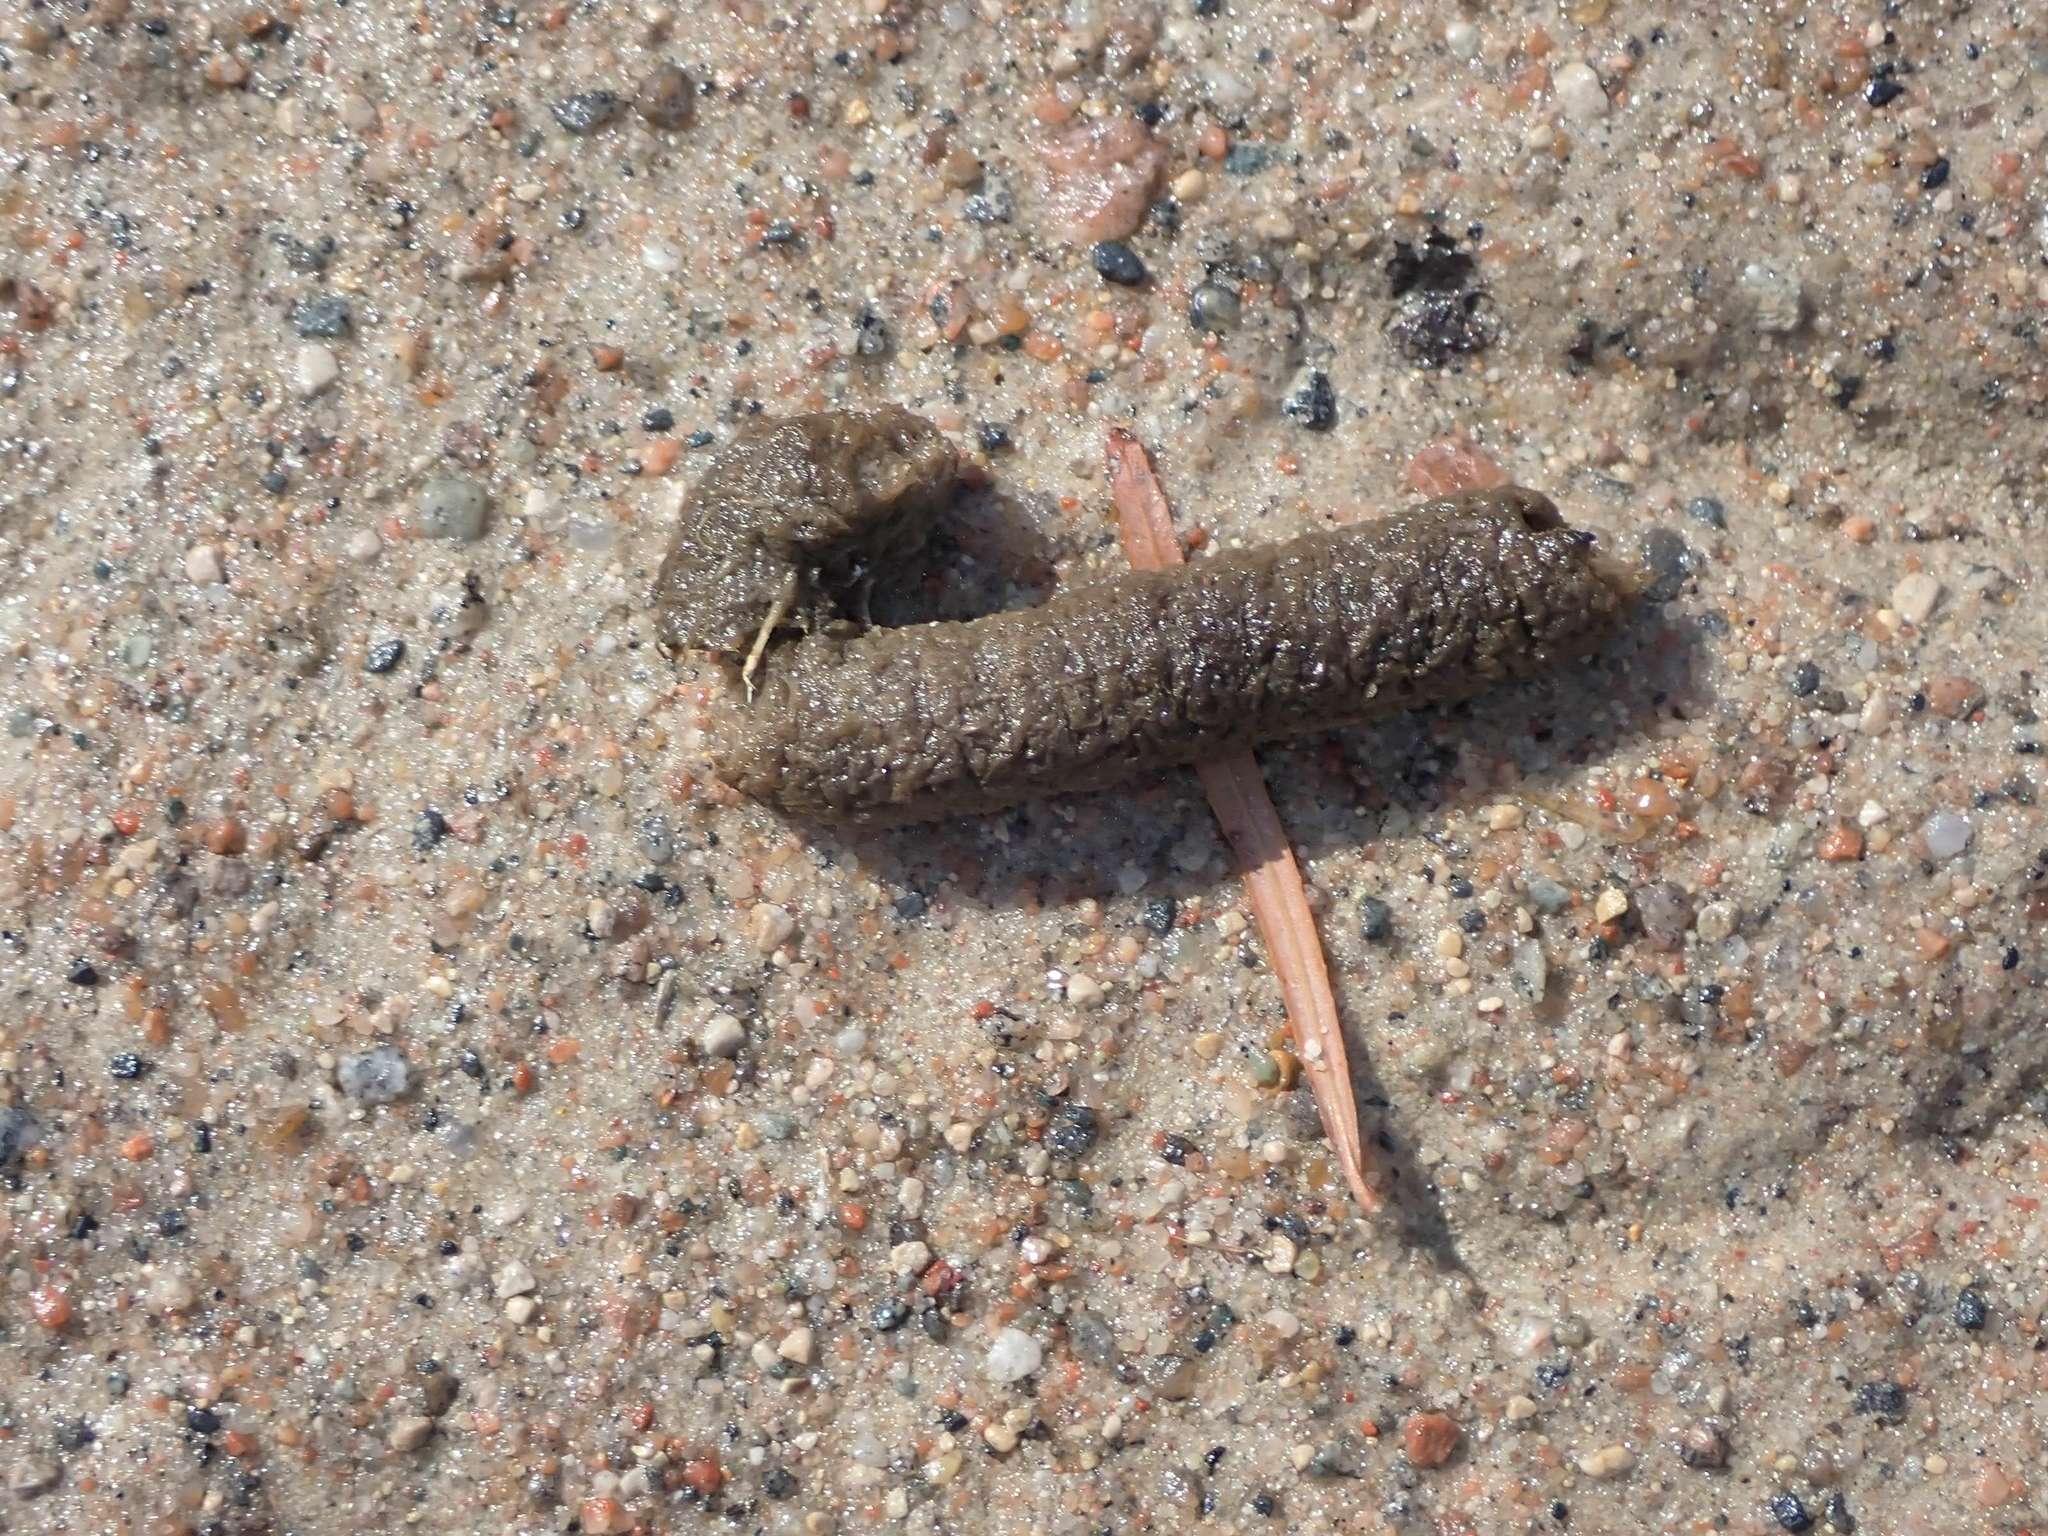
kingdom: Animalia
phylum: Chordata
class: Aves
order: Anseriformes
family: Anatidae
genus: Branta
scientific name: Branta canadensis
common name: Canada goose
